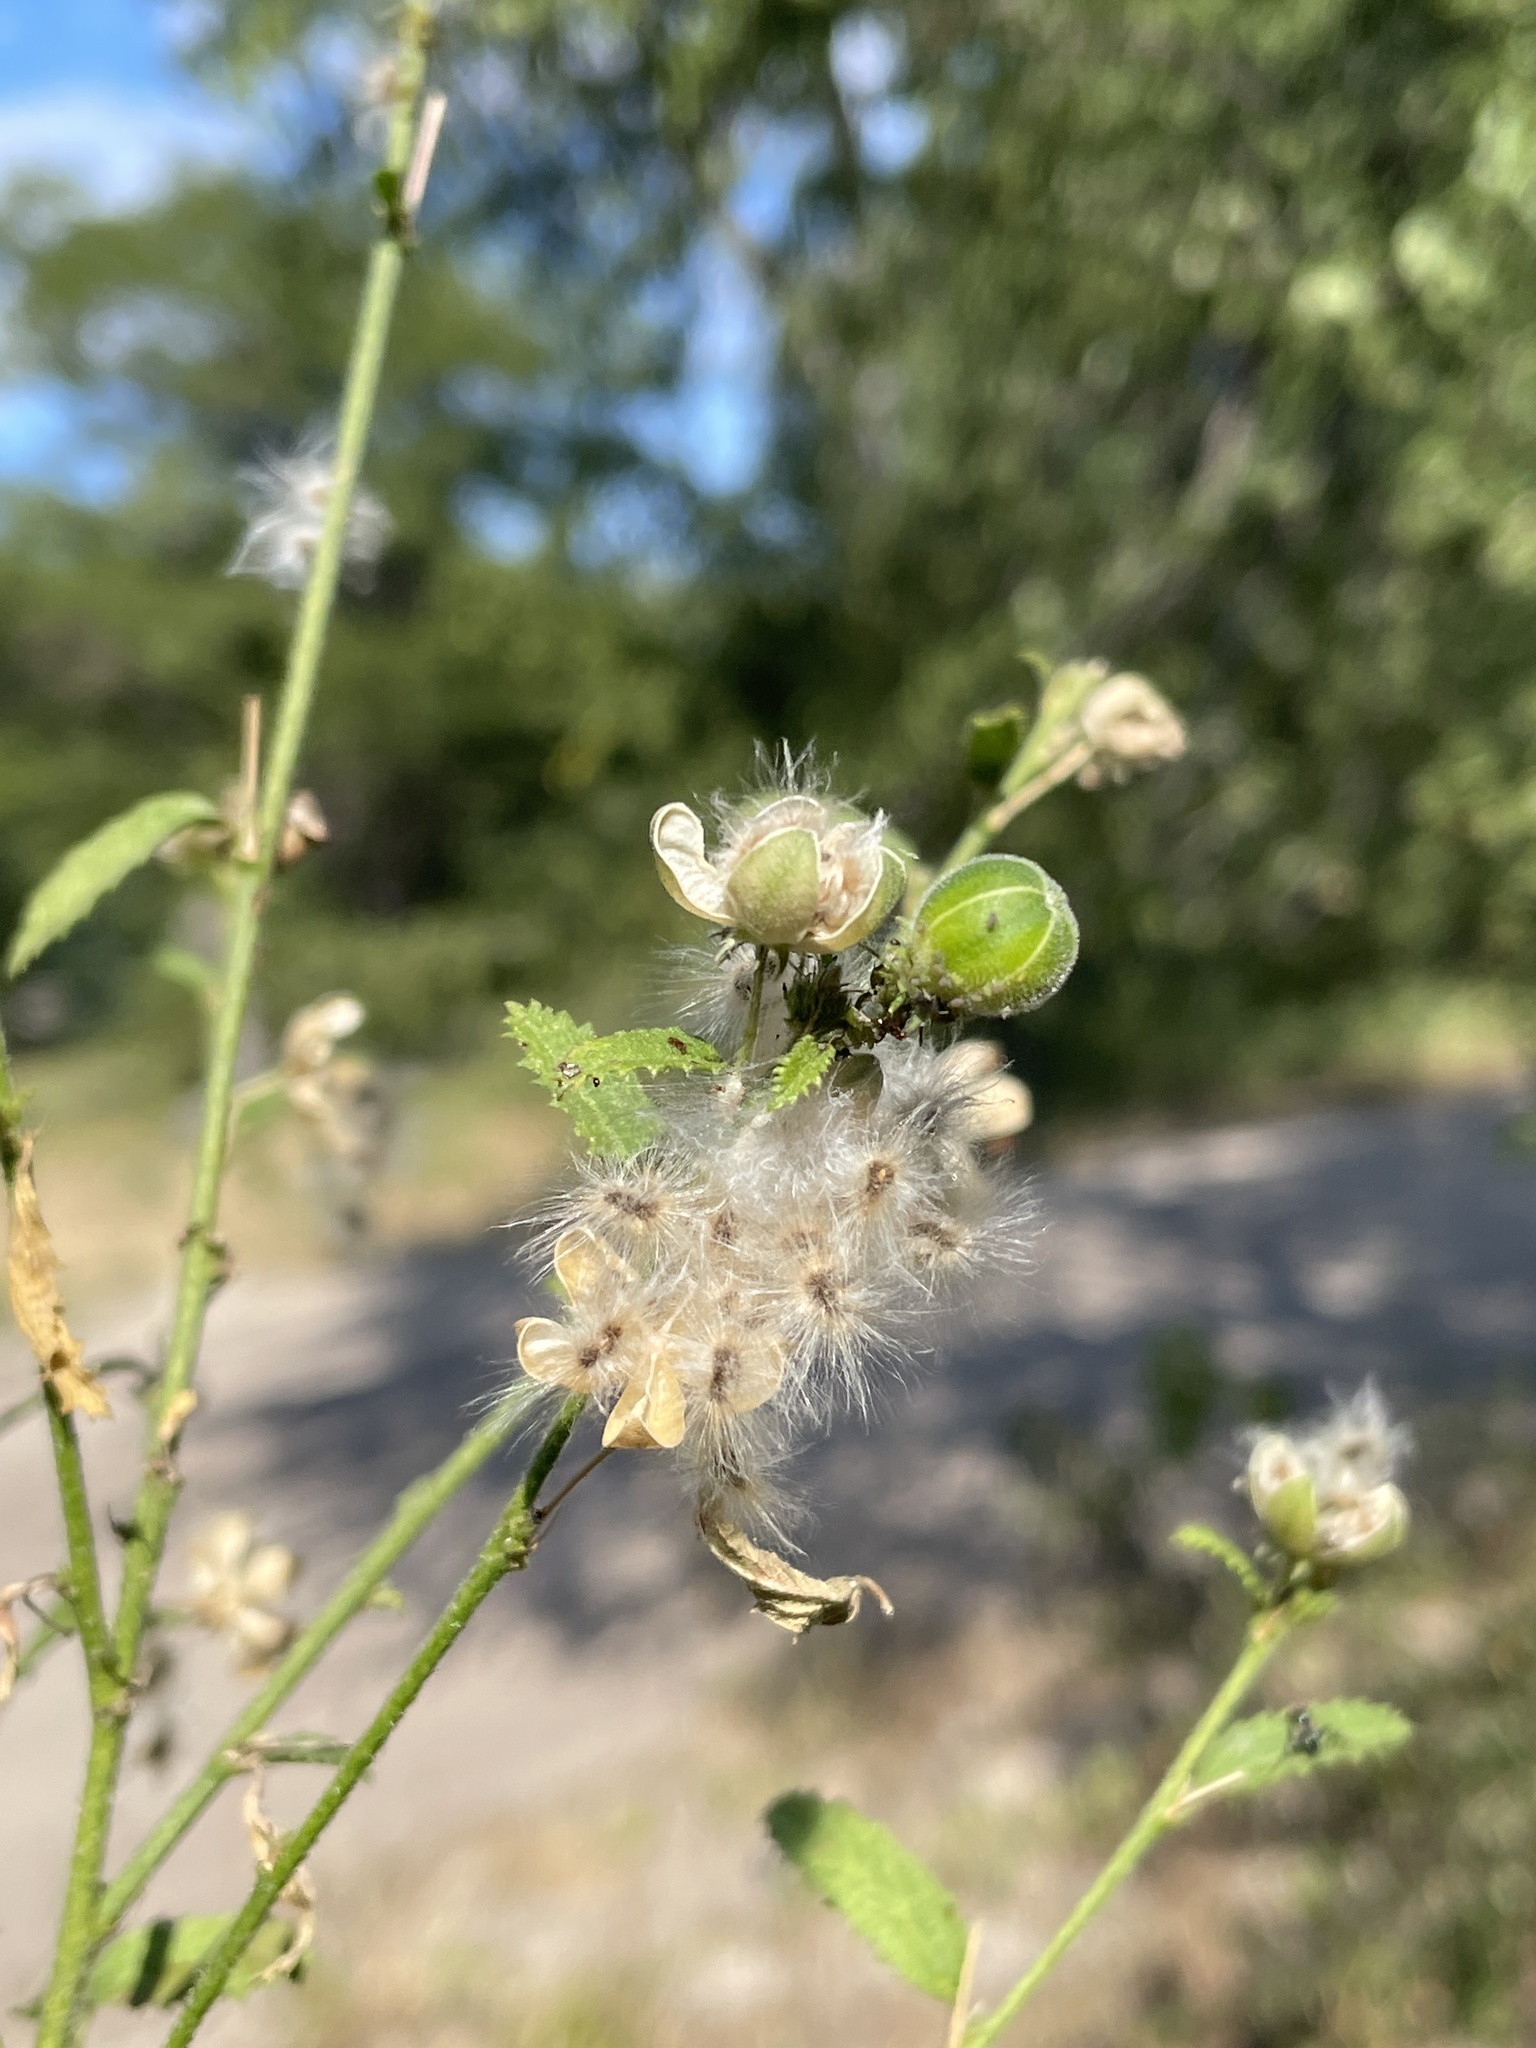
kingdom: Plantae
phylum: Tracheophyta
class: Magnoliopsida
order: Malvales
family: Malvaceae
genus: Hibiscus
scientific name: Hibiscus micranthus
